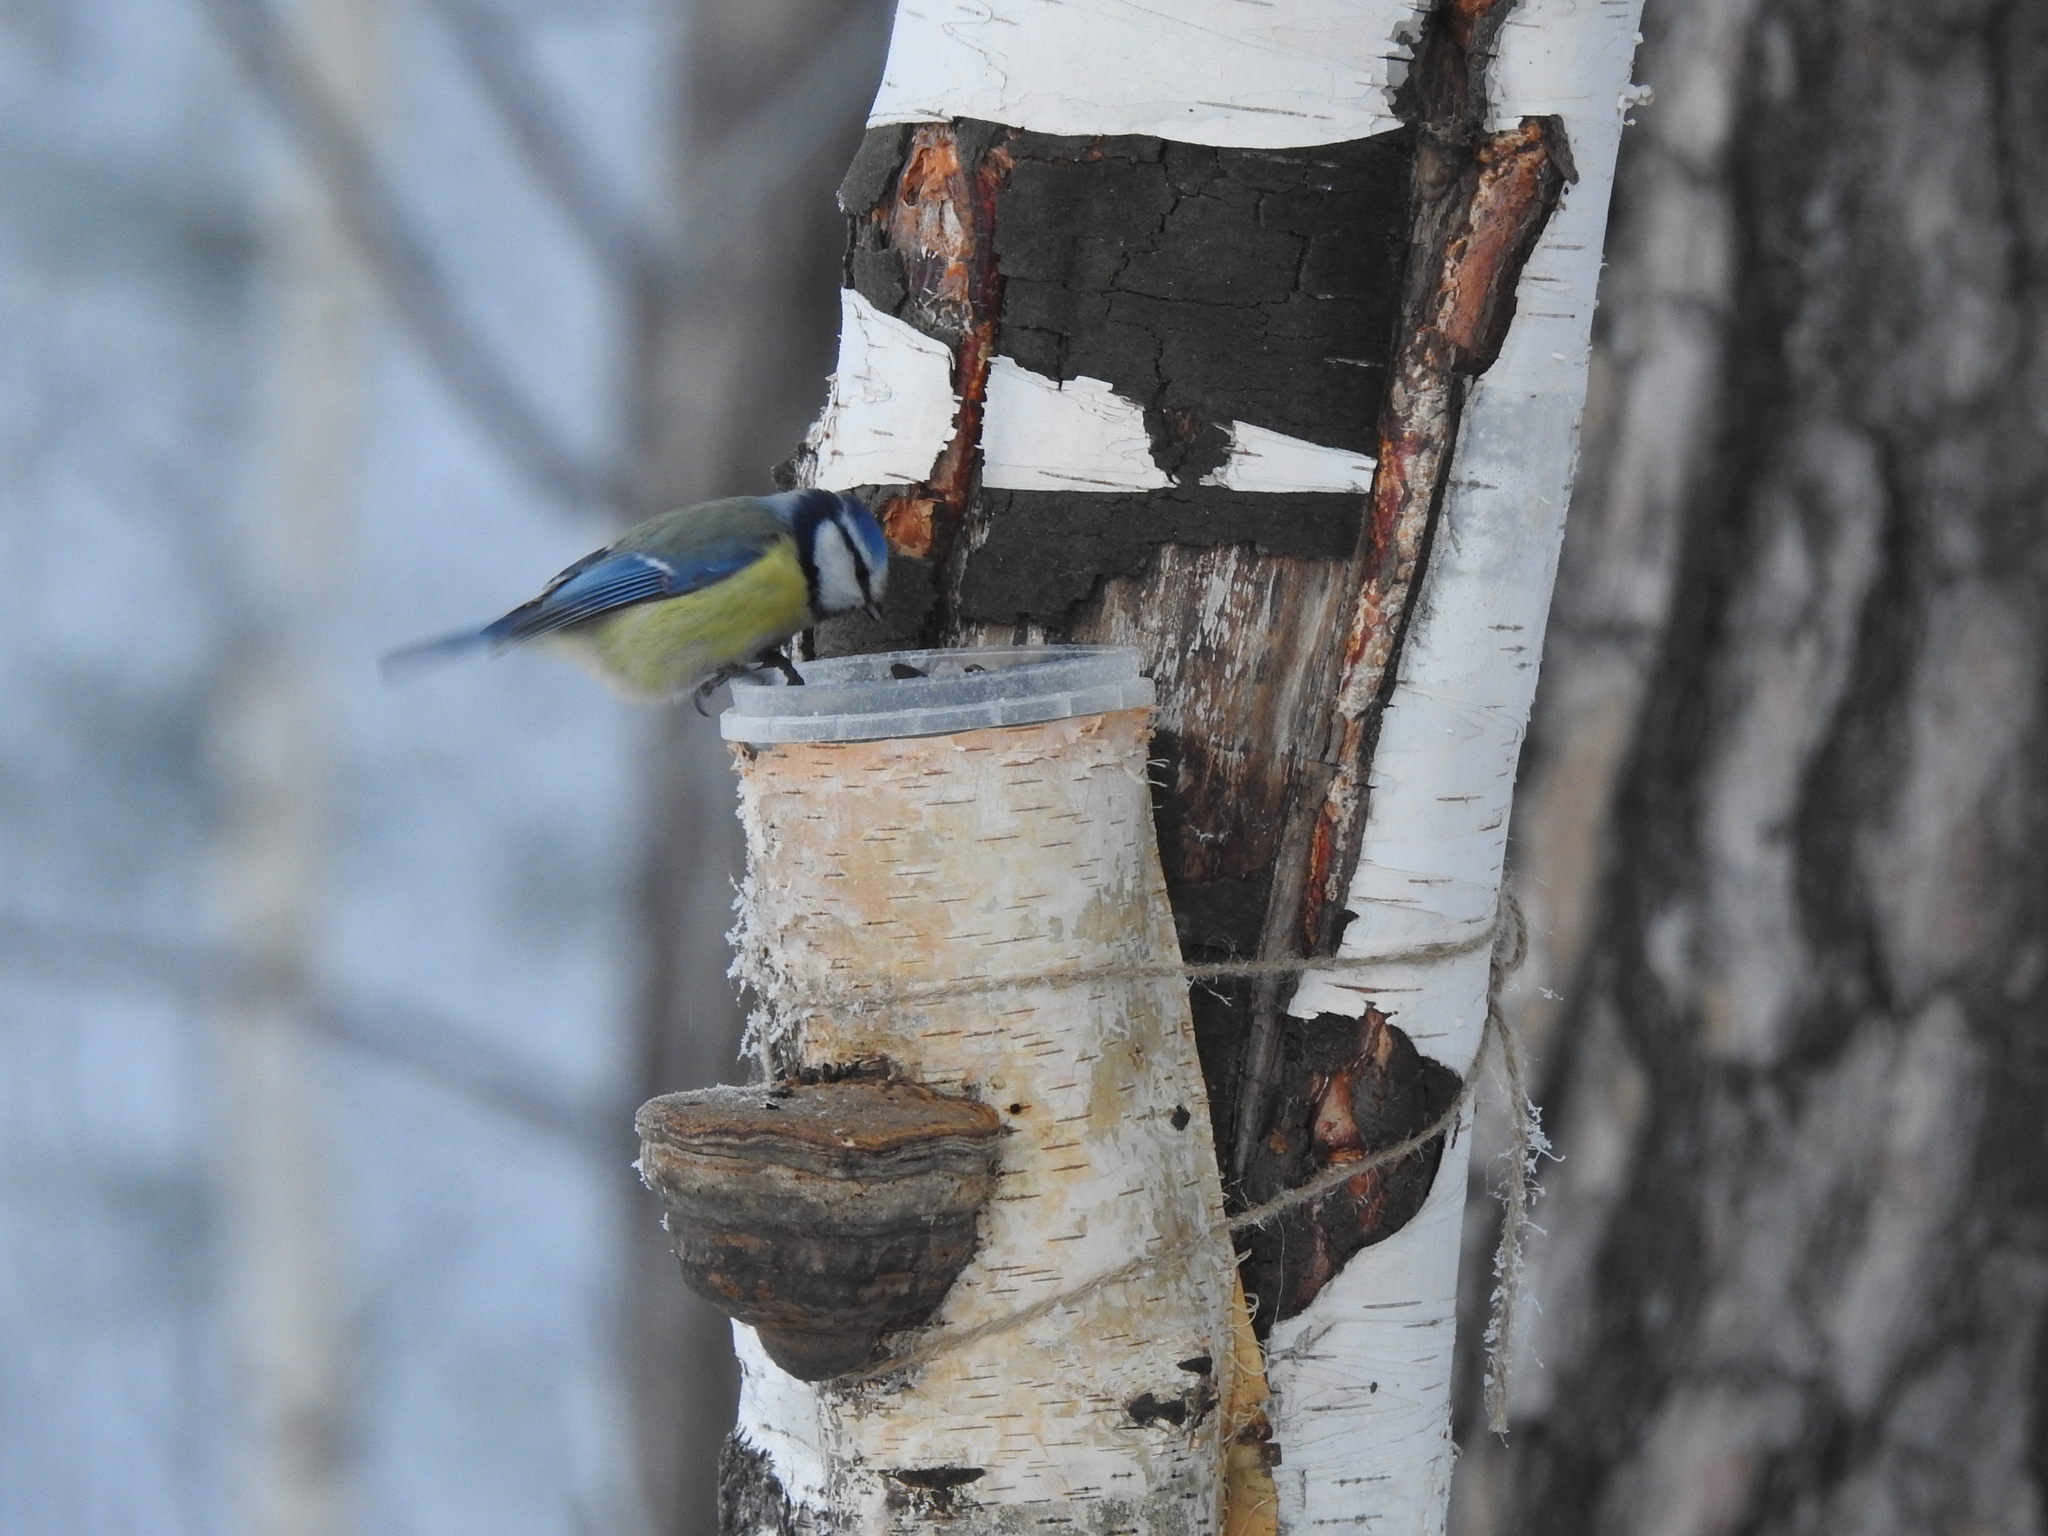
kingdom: Animalia
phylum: Chordata
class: Aves
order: Passeriformes
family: Paridae
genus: Cyanistes
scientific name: Cyanistes caeruleus
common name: Eurasian blue tit
